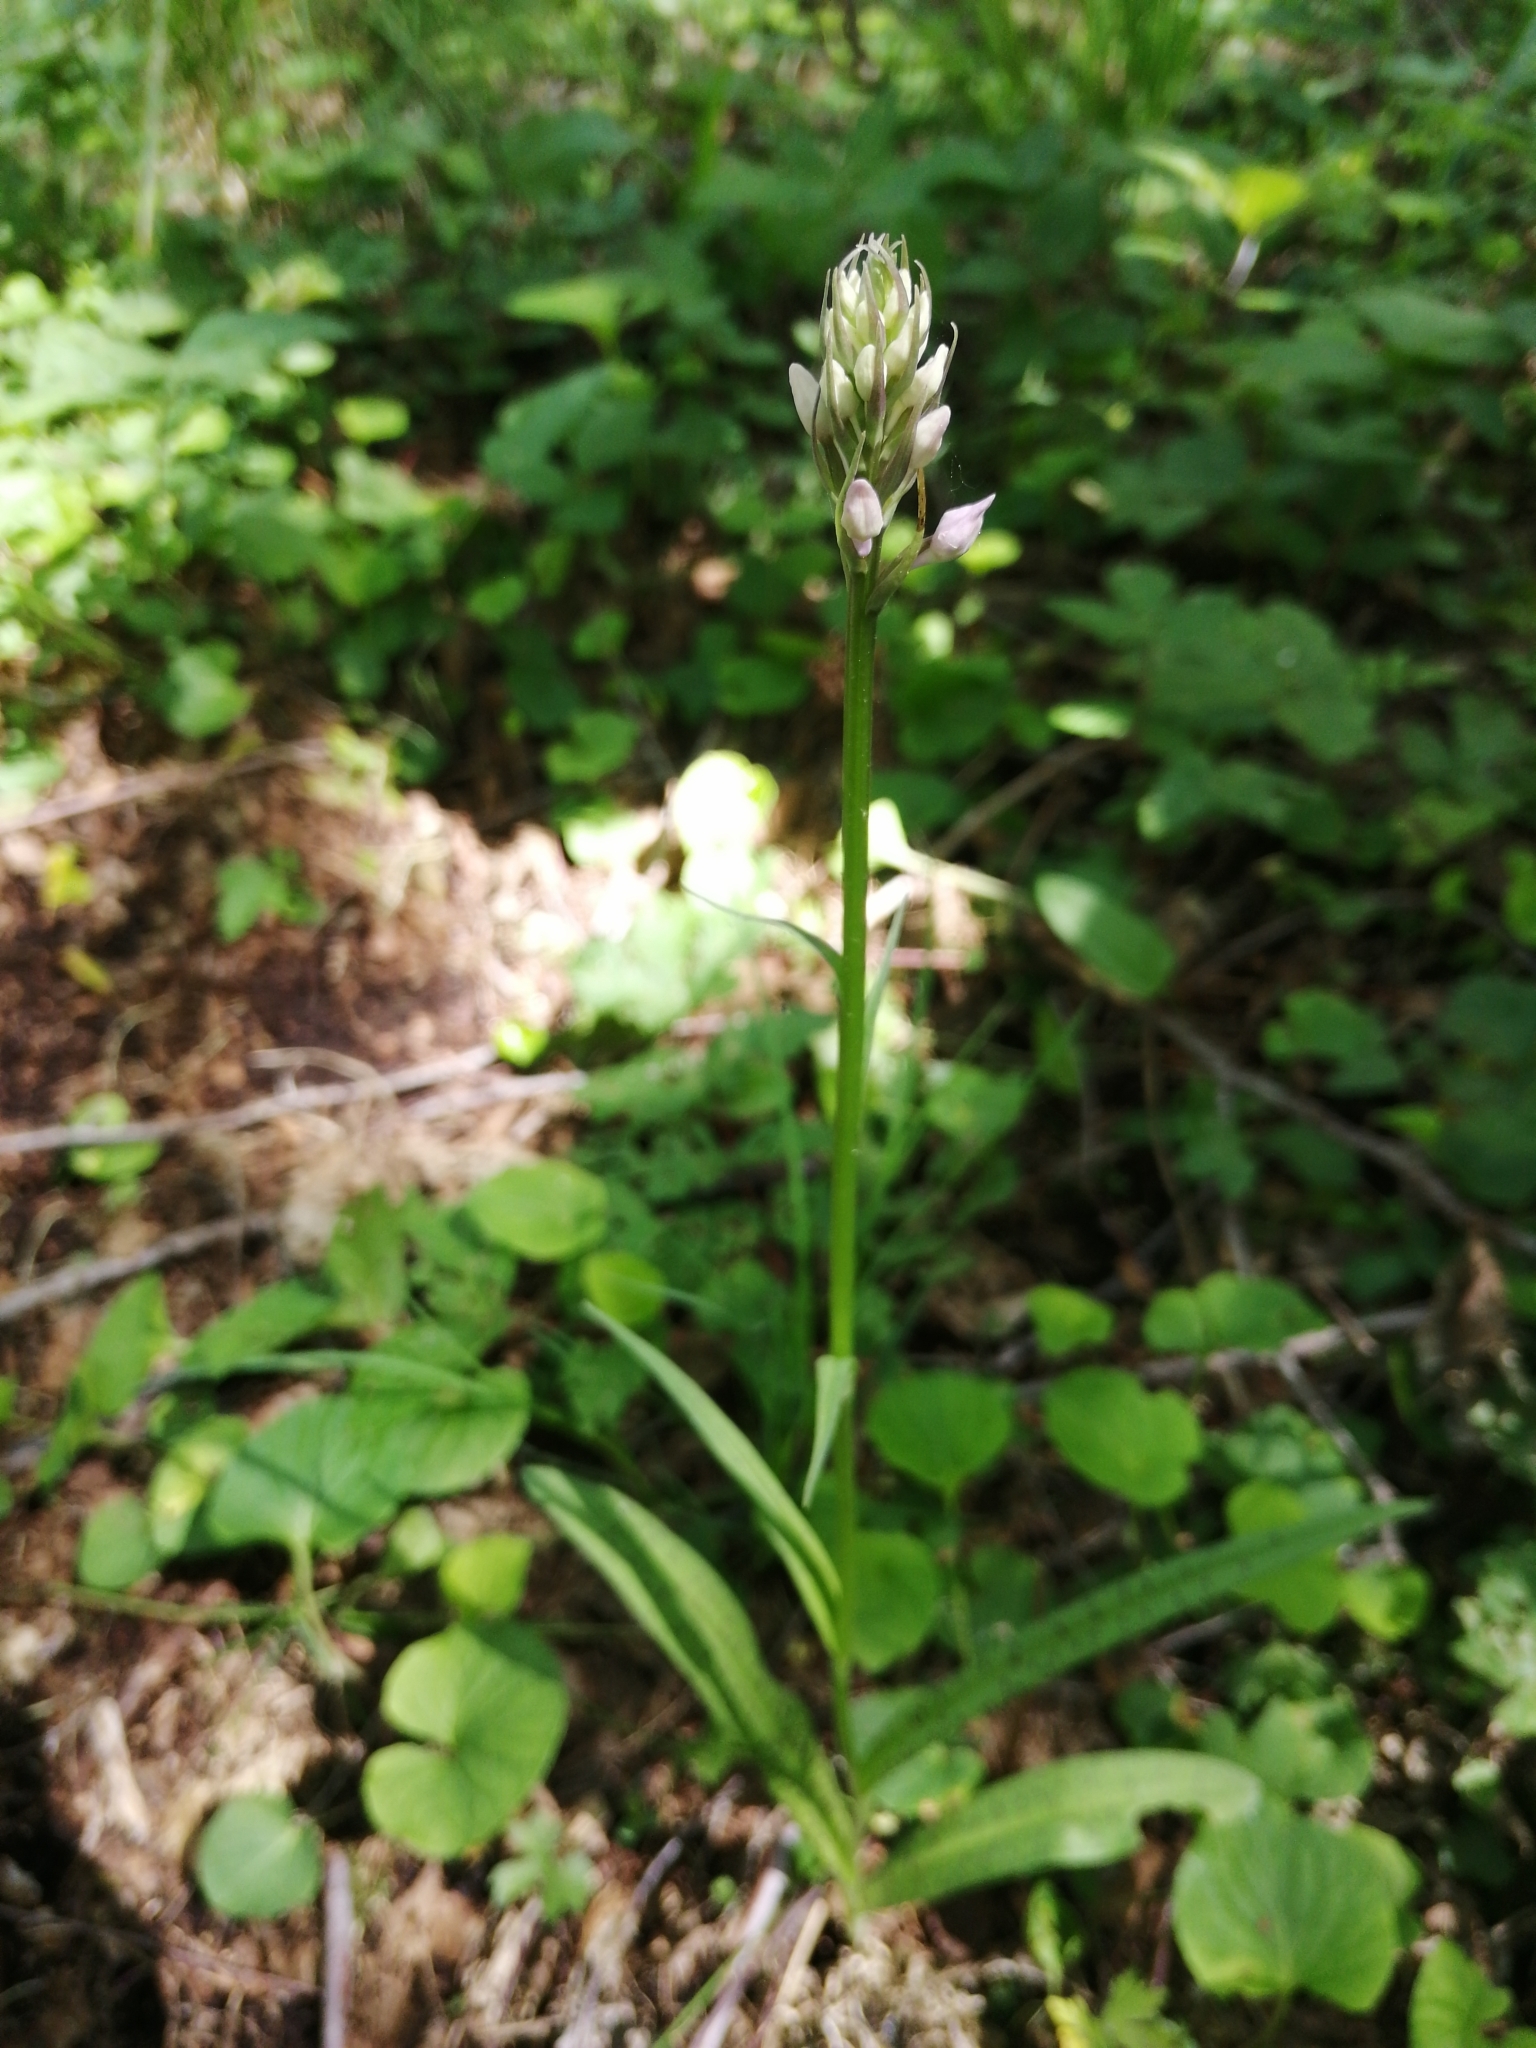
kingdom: Plantae
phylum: Tracheophyta
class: Liliopsida
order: Asparagales
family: Orchidaceae
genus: Dactylorhiza
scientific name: Dactylorhiza maculata
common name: Heath spotted-orchid
